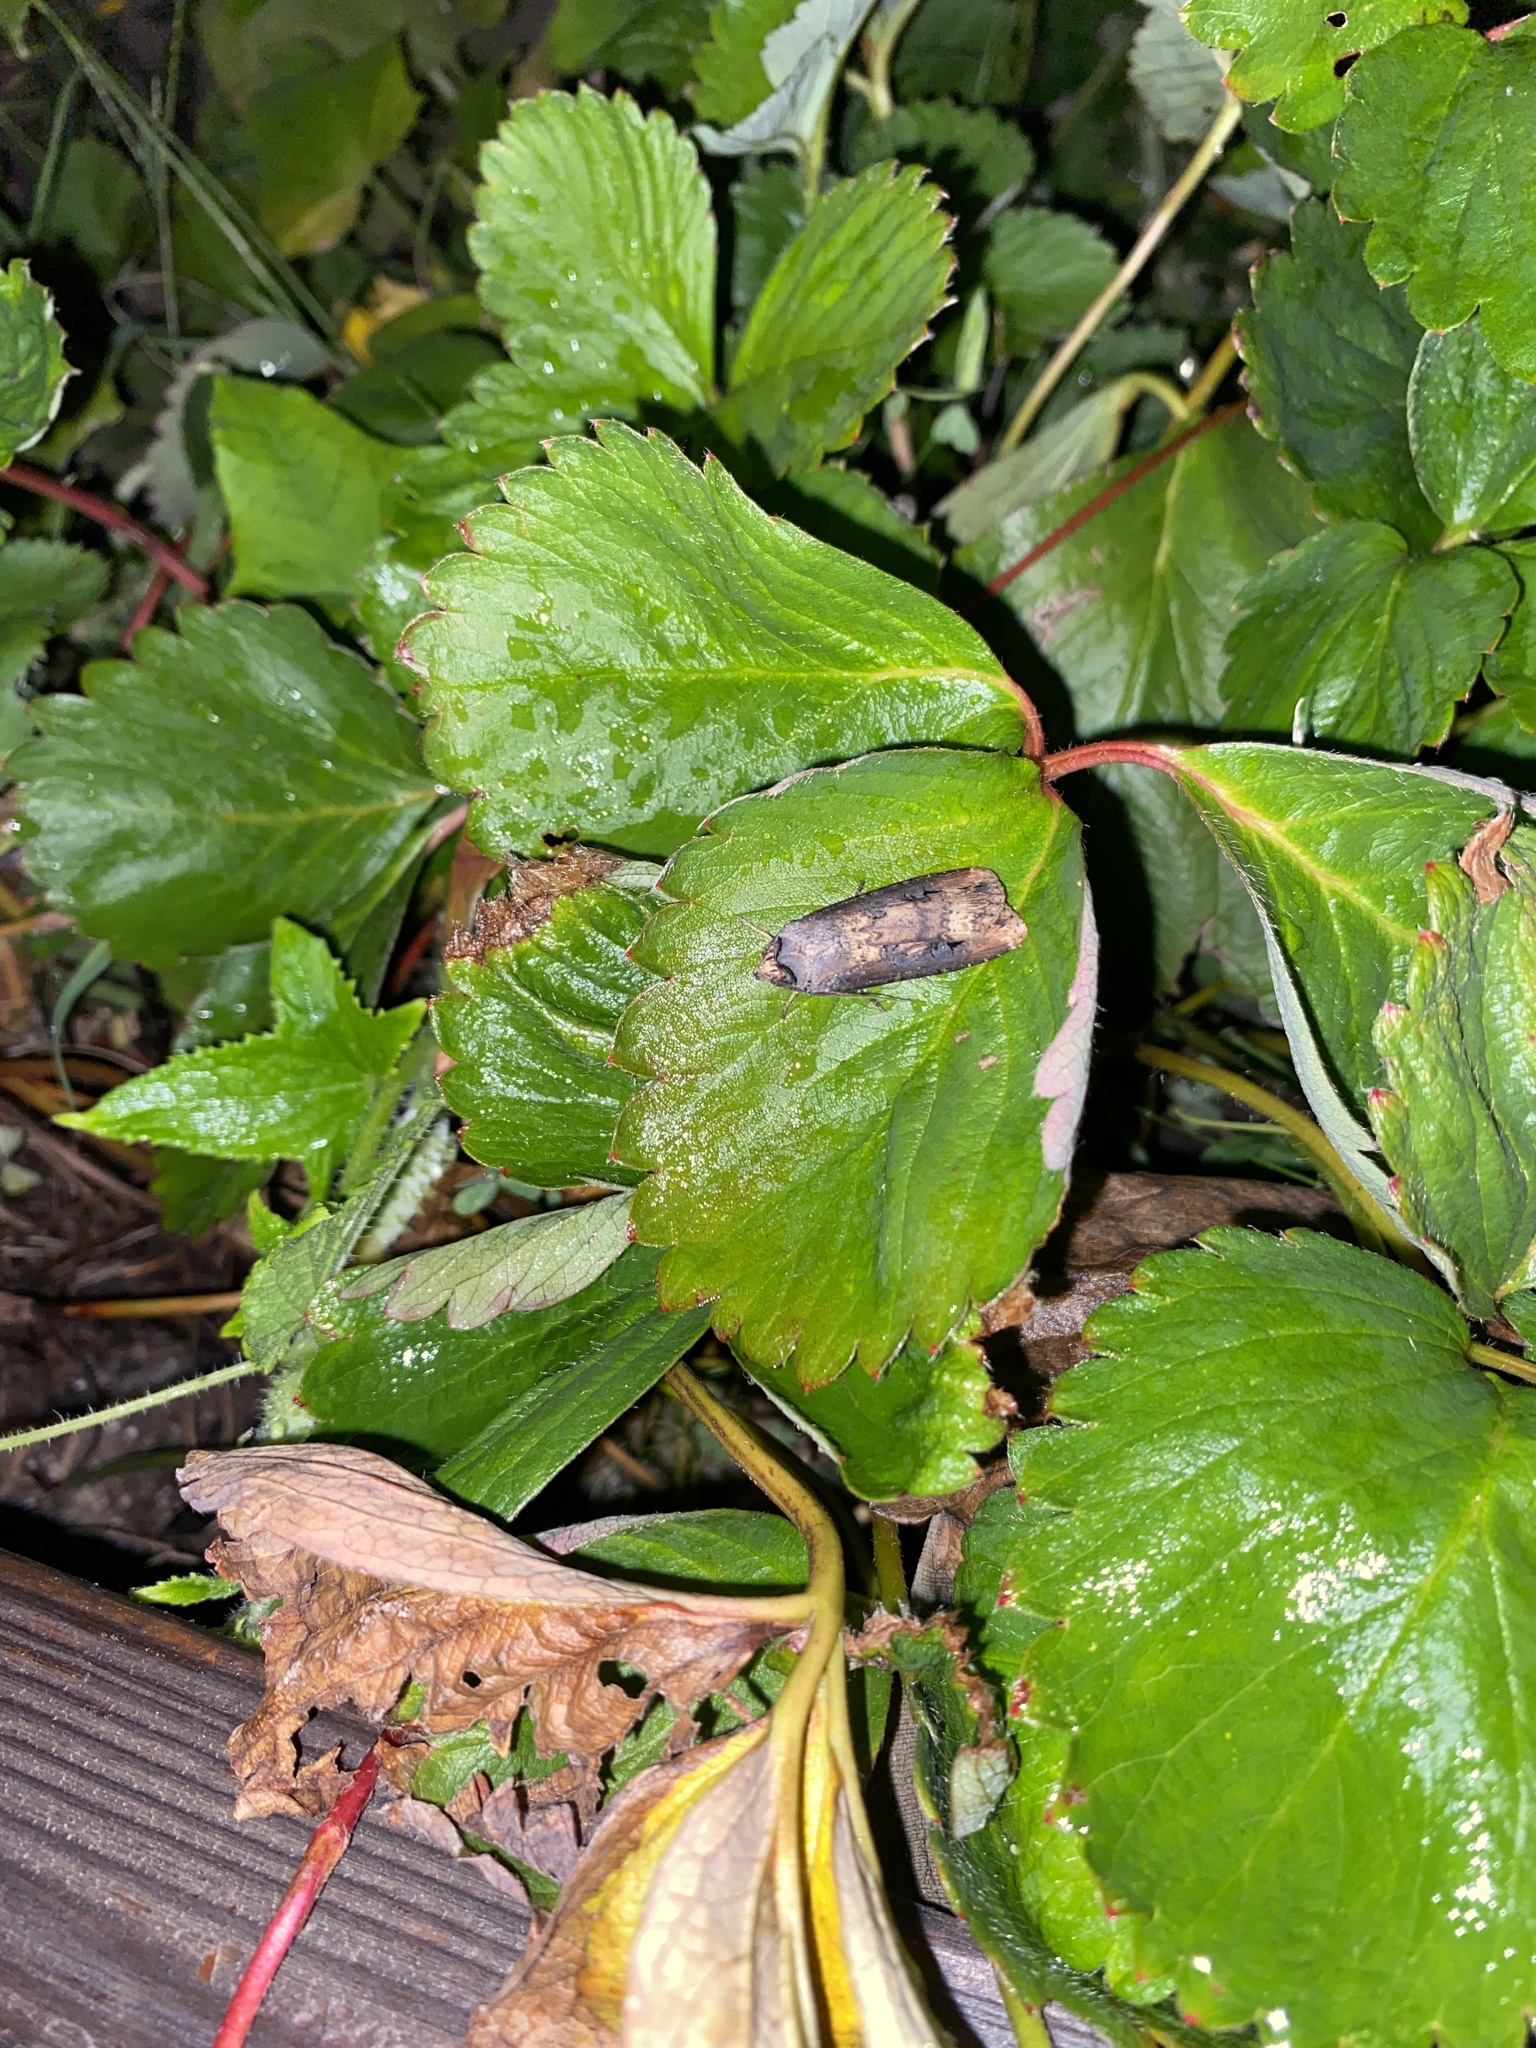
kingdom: Animalia
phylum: Arthropoda
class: Insecta
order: Lepidoptera
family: Noctuidae
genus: Agrotis
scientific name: Agrotis ipsilon
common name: Dark sword-grass
